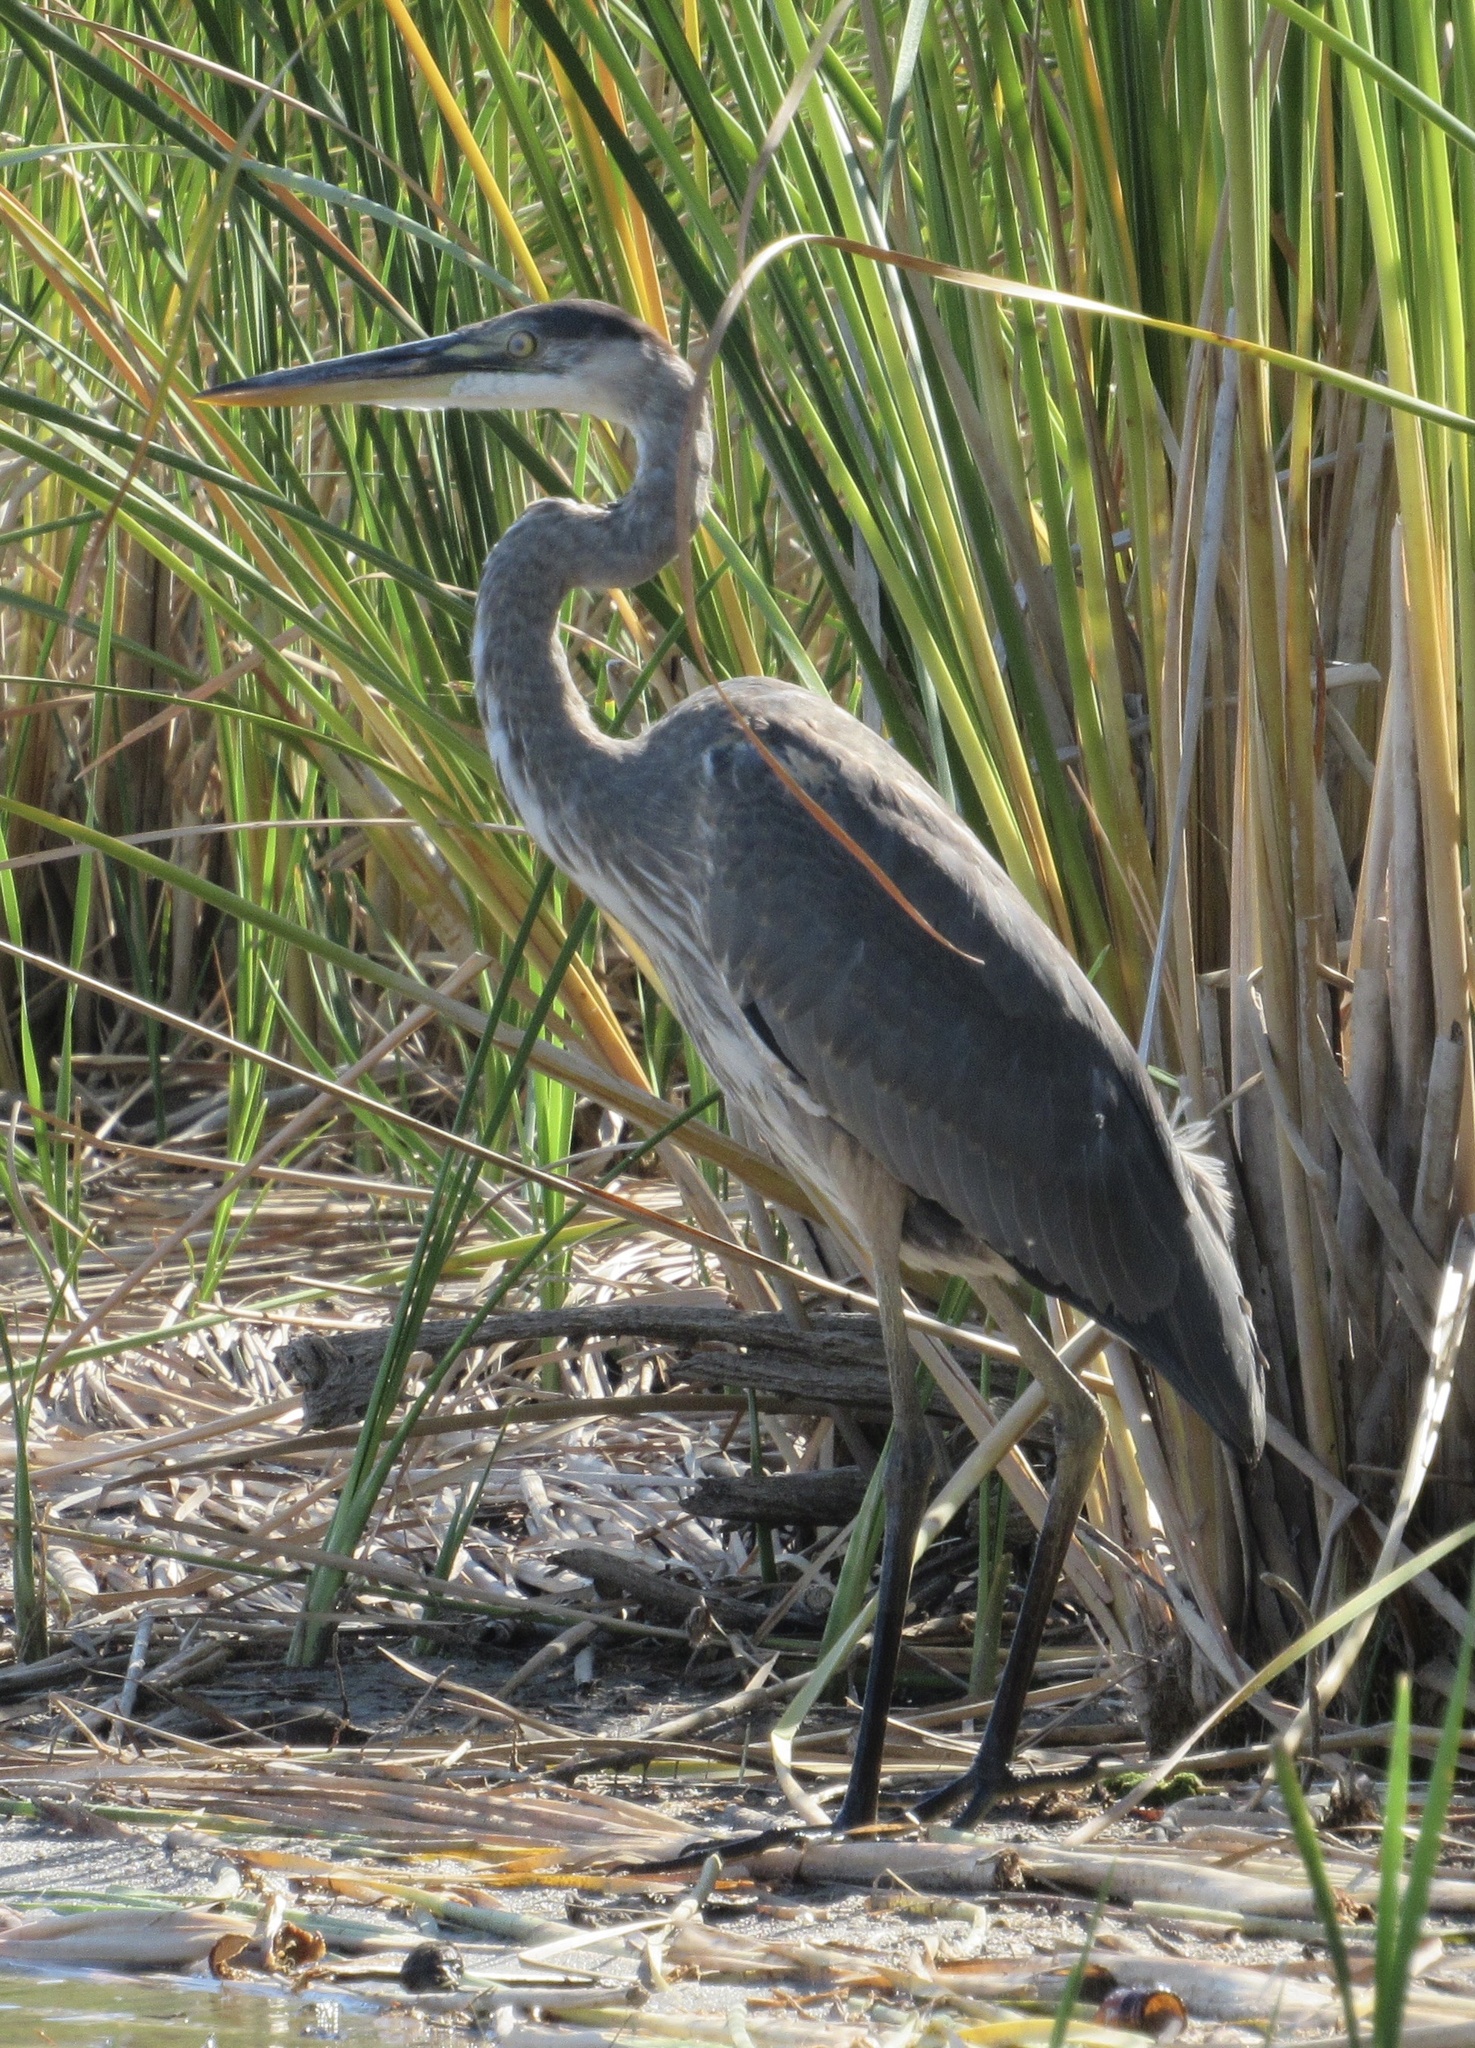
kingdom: Animalia
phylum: Chordata
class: Aves
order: Pelecaniformes
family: Ardeidae
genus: Ardea
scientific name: Ardea herodias
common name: Great blue heron
